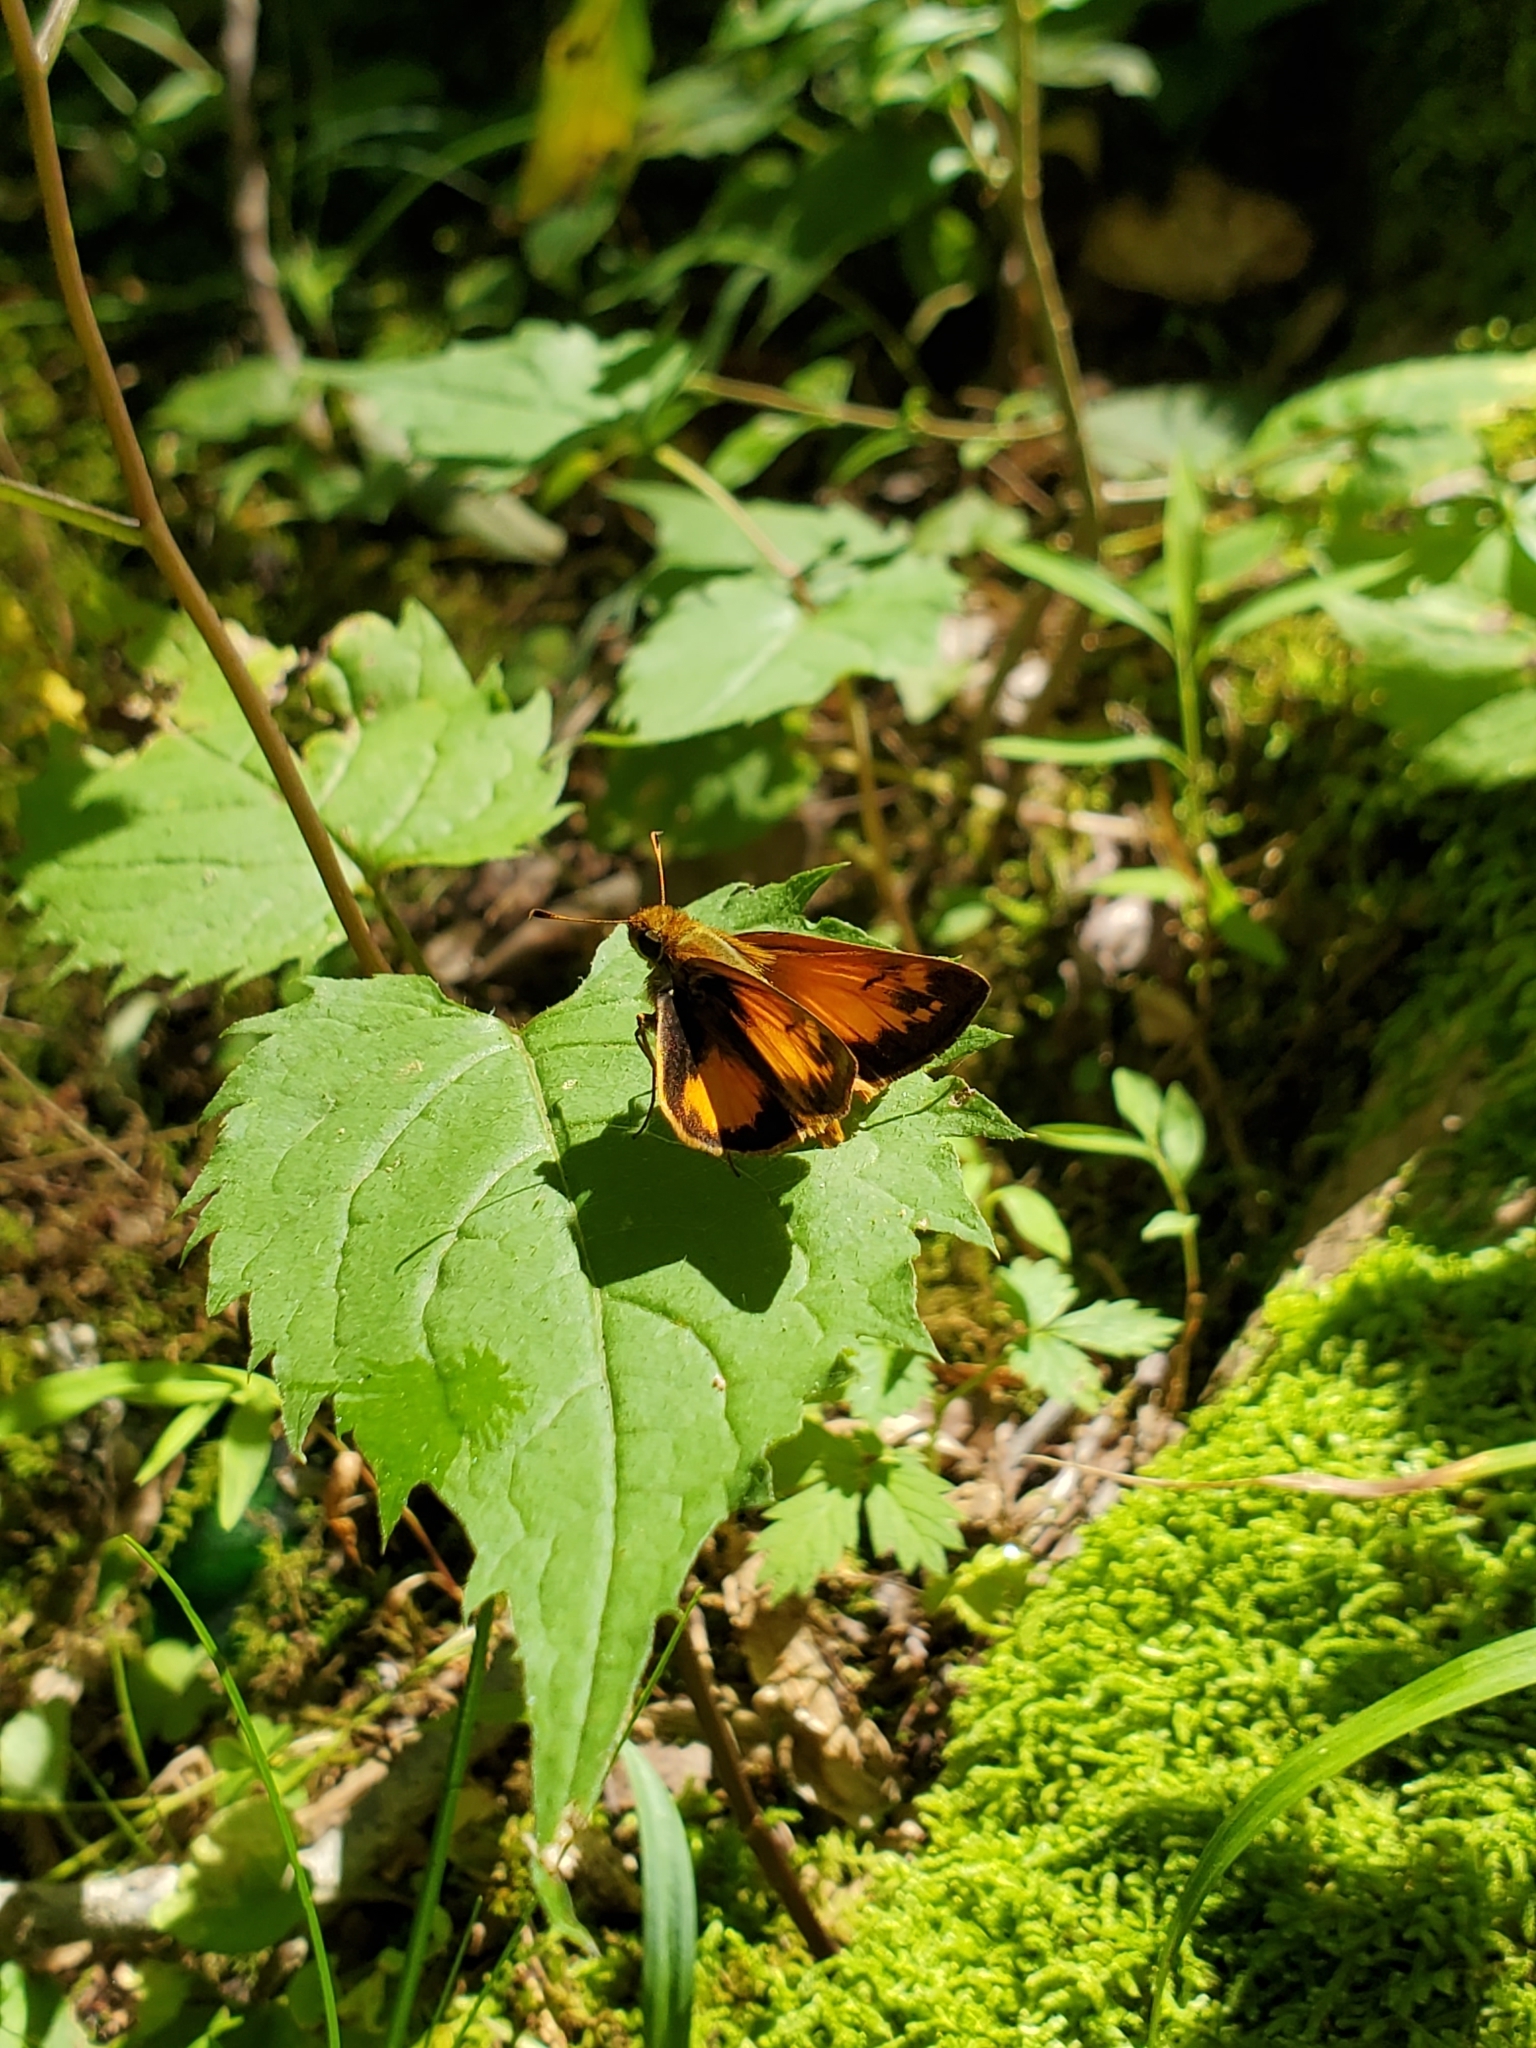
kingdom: Animalia
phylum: Arthropoda
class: Insecta
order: Lepidoptera
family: Hesperiidae
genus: Lon
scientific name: Lon zabulon
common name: Zabulon skipper
